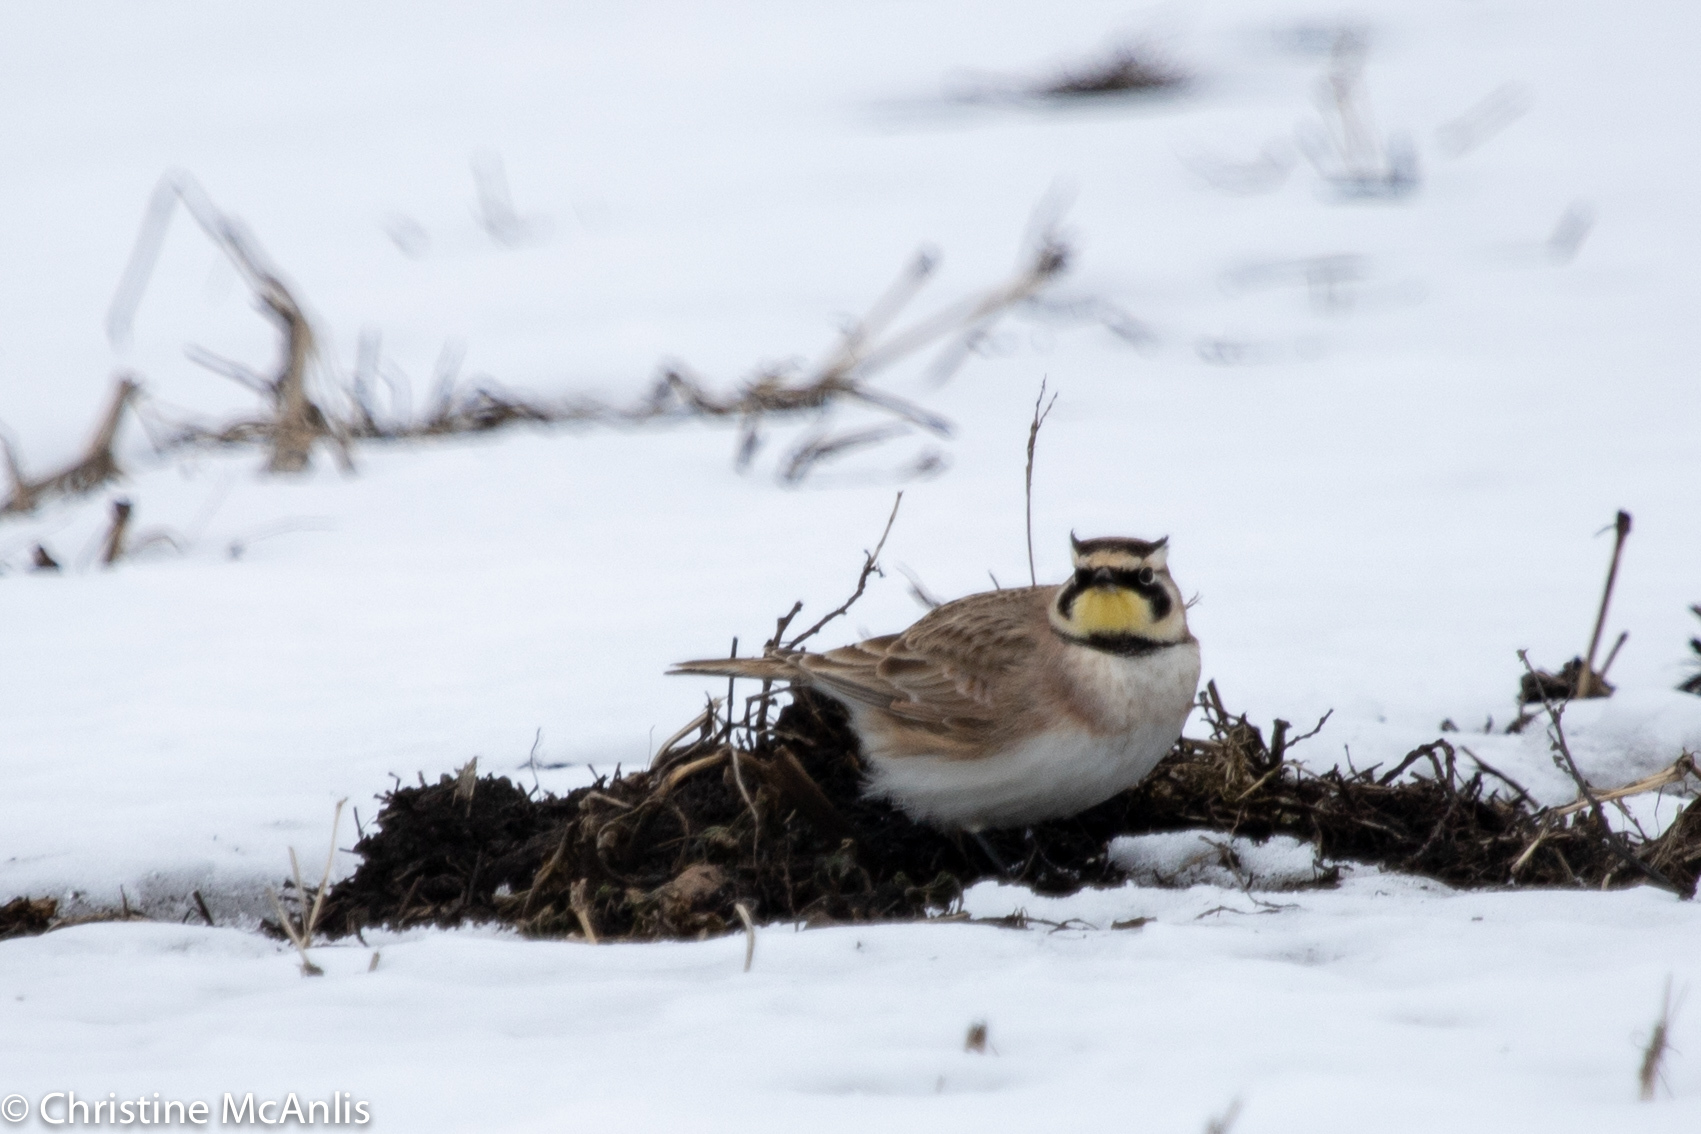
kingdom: Animalia
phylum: Chordata
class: Aves
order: Passeriformes
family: Alaudidae
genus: Eremophila
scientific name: Eremophila alpestris
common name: Horned lark
